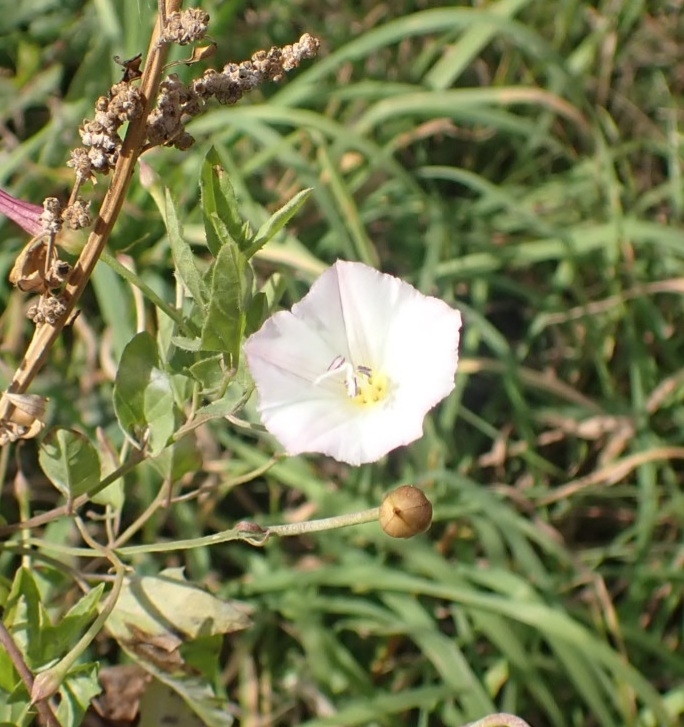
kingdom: Plantae
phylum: Tracheophyta
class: Magnoliopsida
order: Solanales
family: Convolvulaceae
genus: Convolvulus
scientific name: Convolvulus arvensis
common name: Field bindweed
